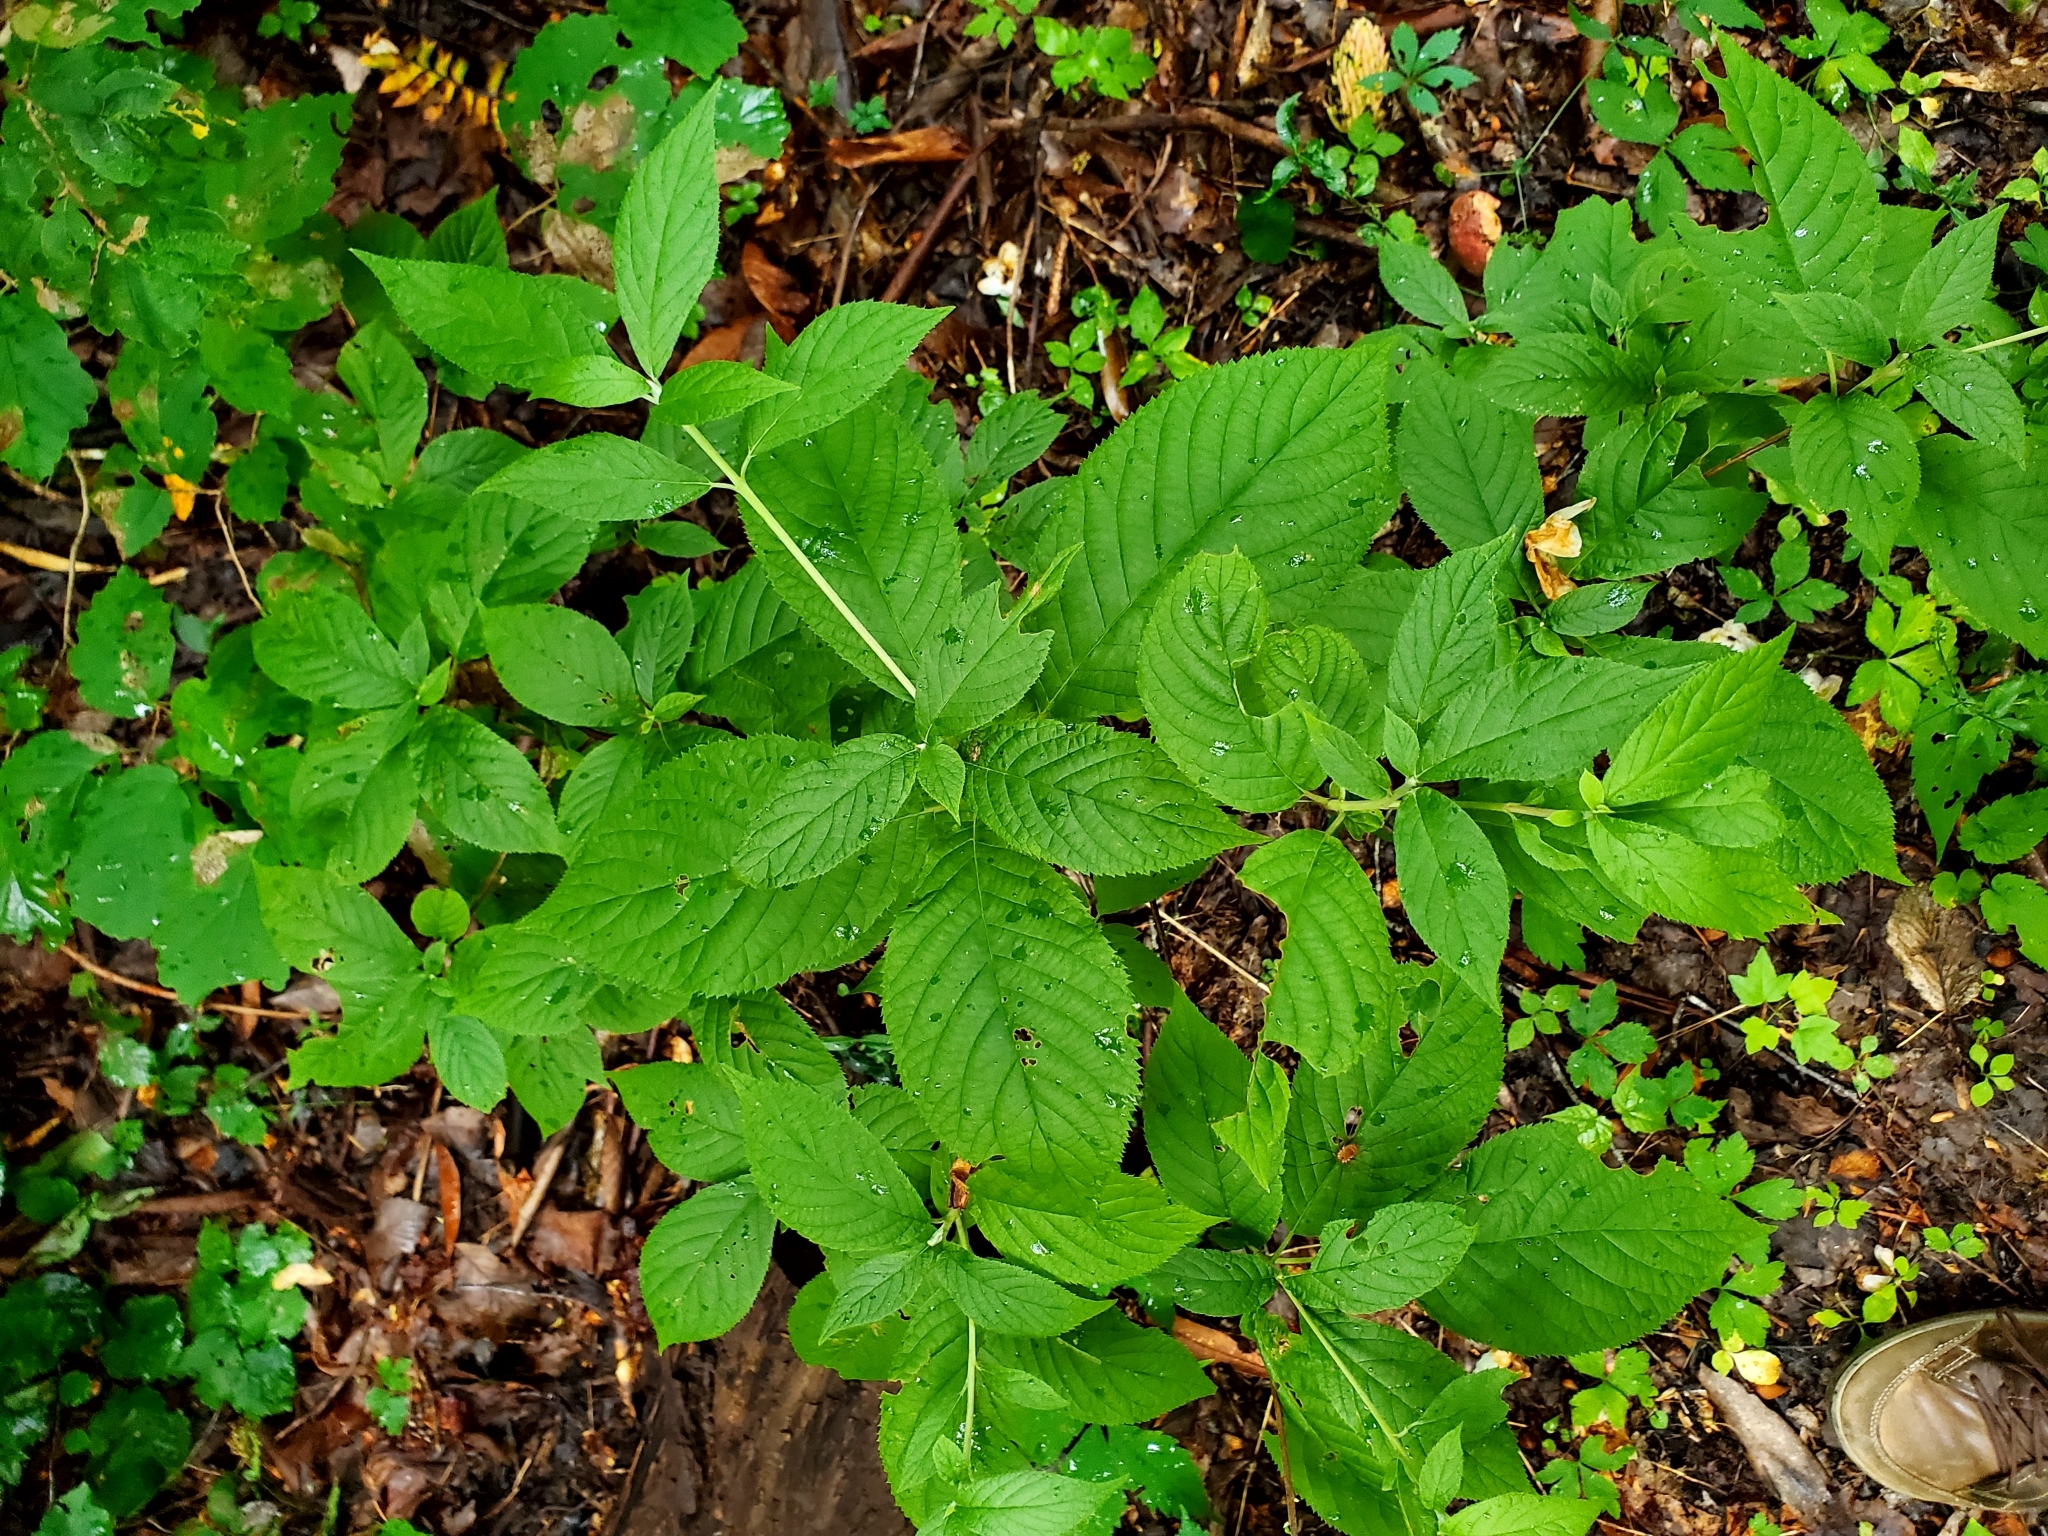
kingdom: Plantae
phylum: Tracheophyta
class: Magnoliopsida
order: Ericales
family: Clethraceae
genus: Clethra
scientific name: Clethra acuminata
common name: Mountain sweet pepperbush
